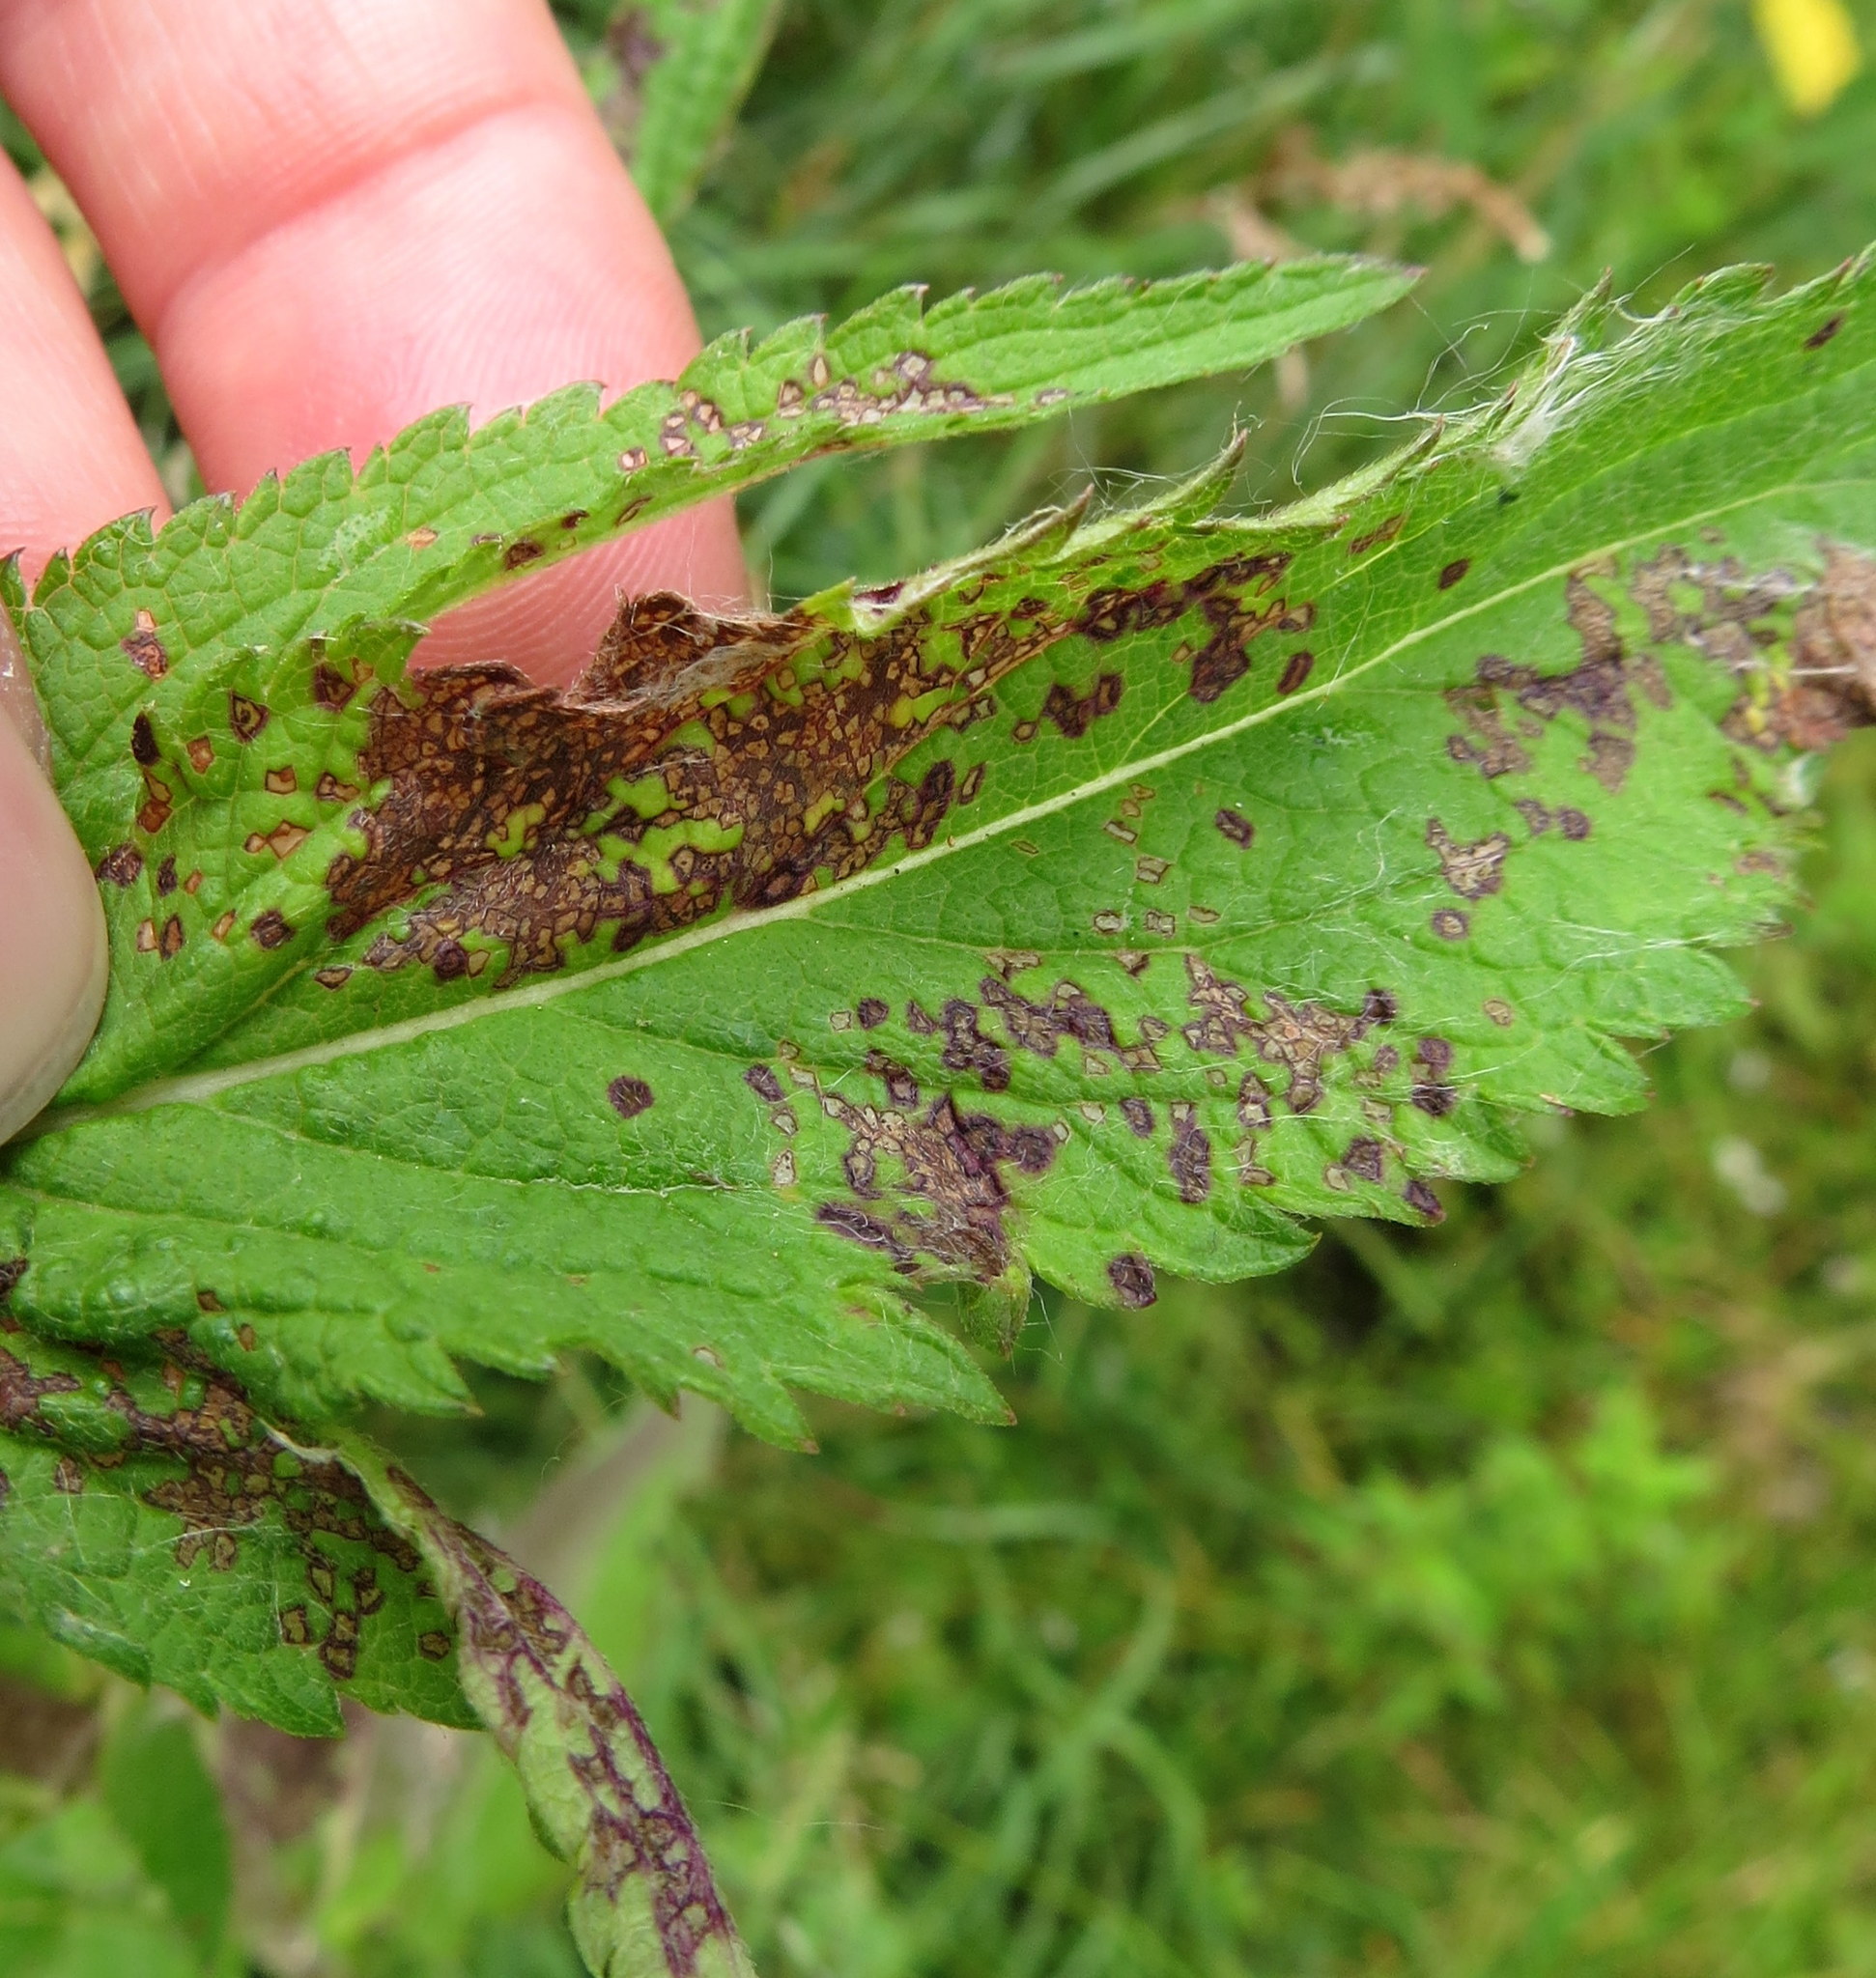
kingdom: Animalia
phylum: Arthropoda
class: Insecta
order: Hemiptera
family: Miridae
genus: Poecilocapsus
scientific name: Poecilocapsus lineatus
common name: Four-lined plant bug
